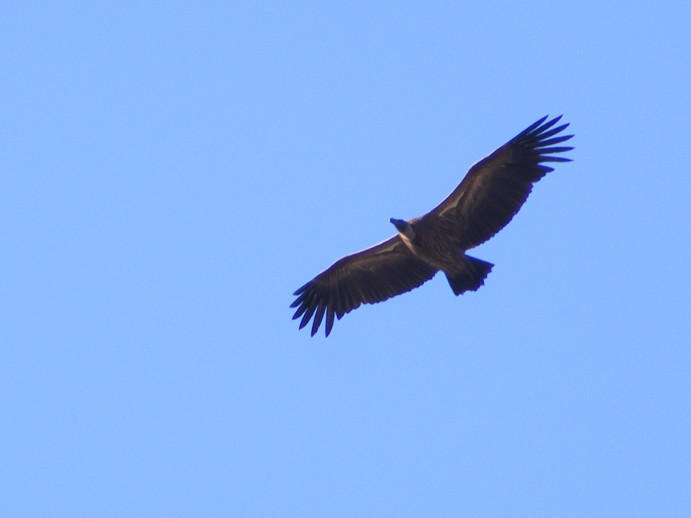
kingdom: Animalia
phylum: Chordata
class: Aves
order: Accipitriformes
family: Accipitridae
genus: Gyps
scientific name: Gyps africanus
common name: White-backed vulture
